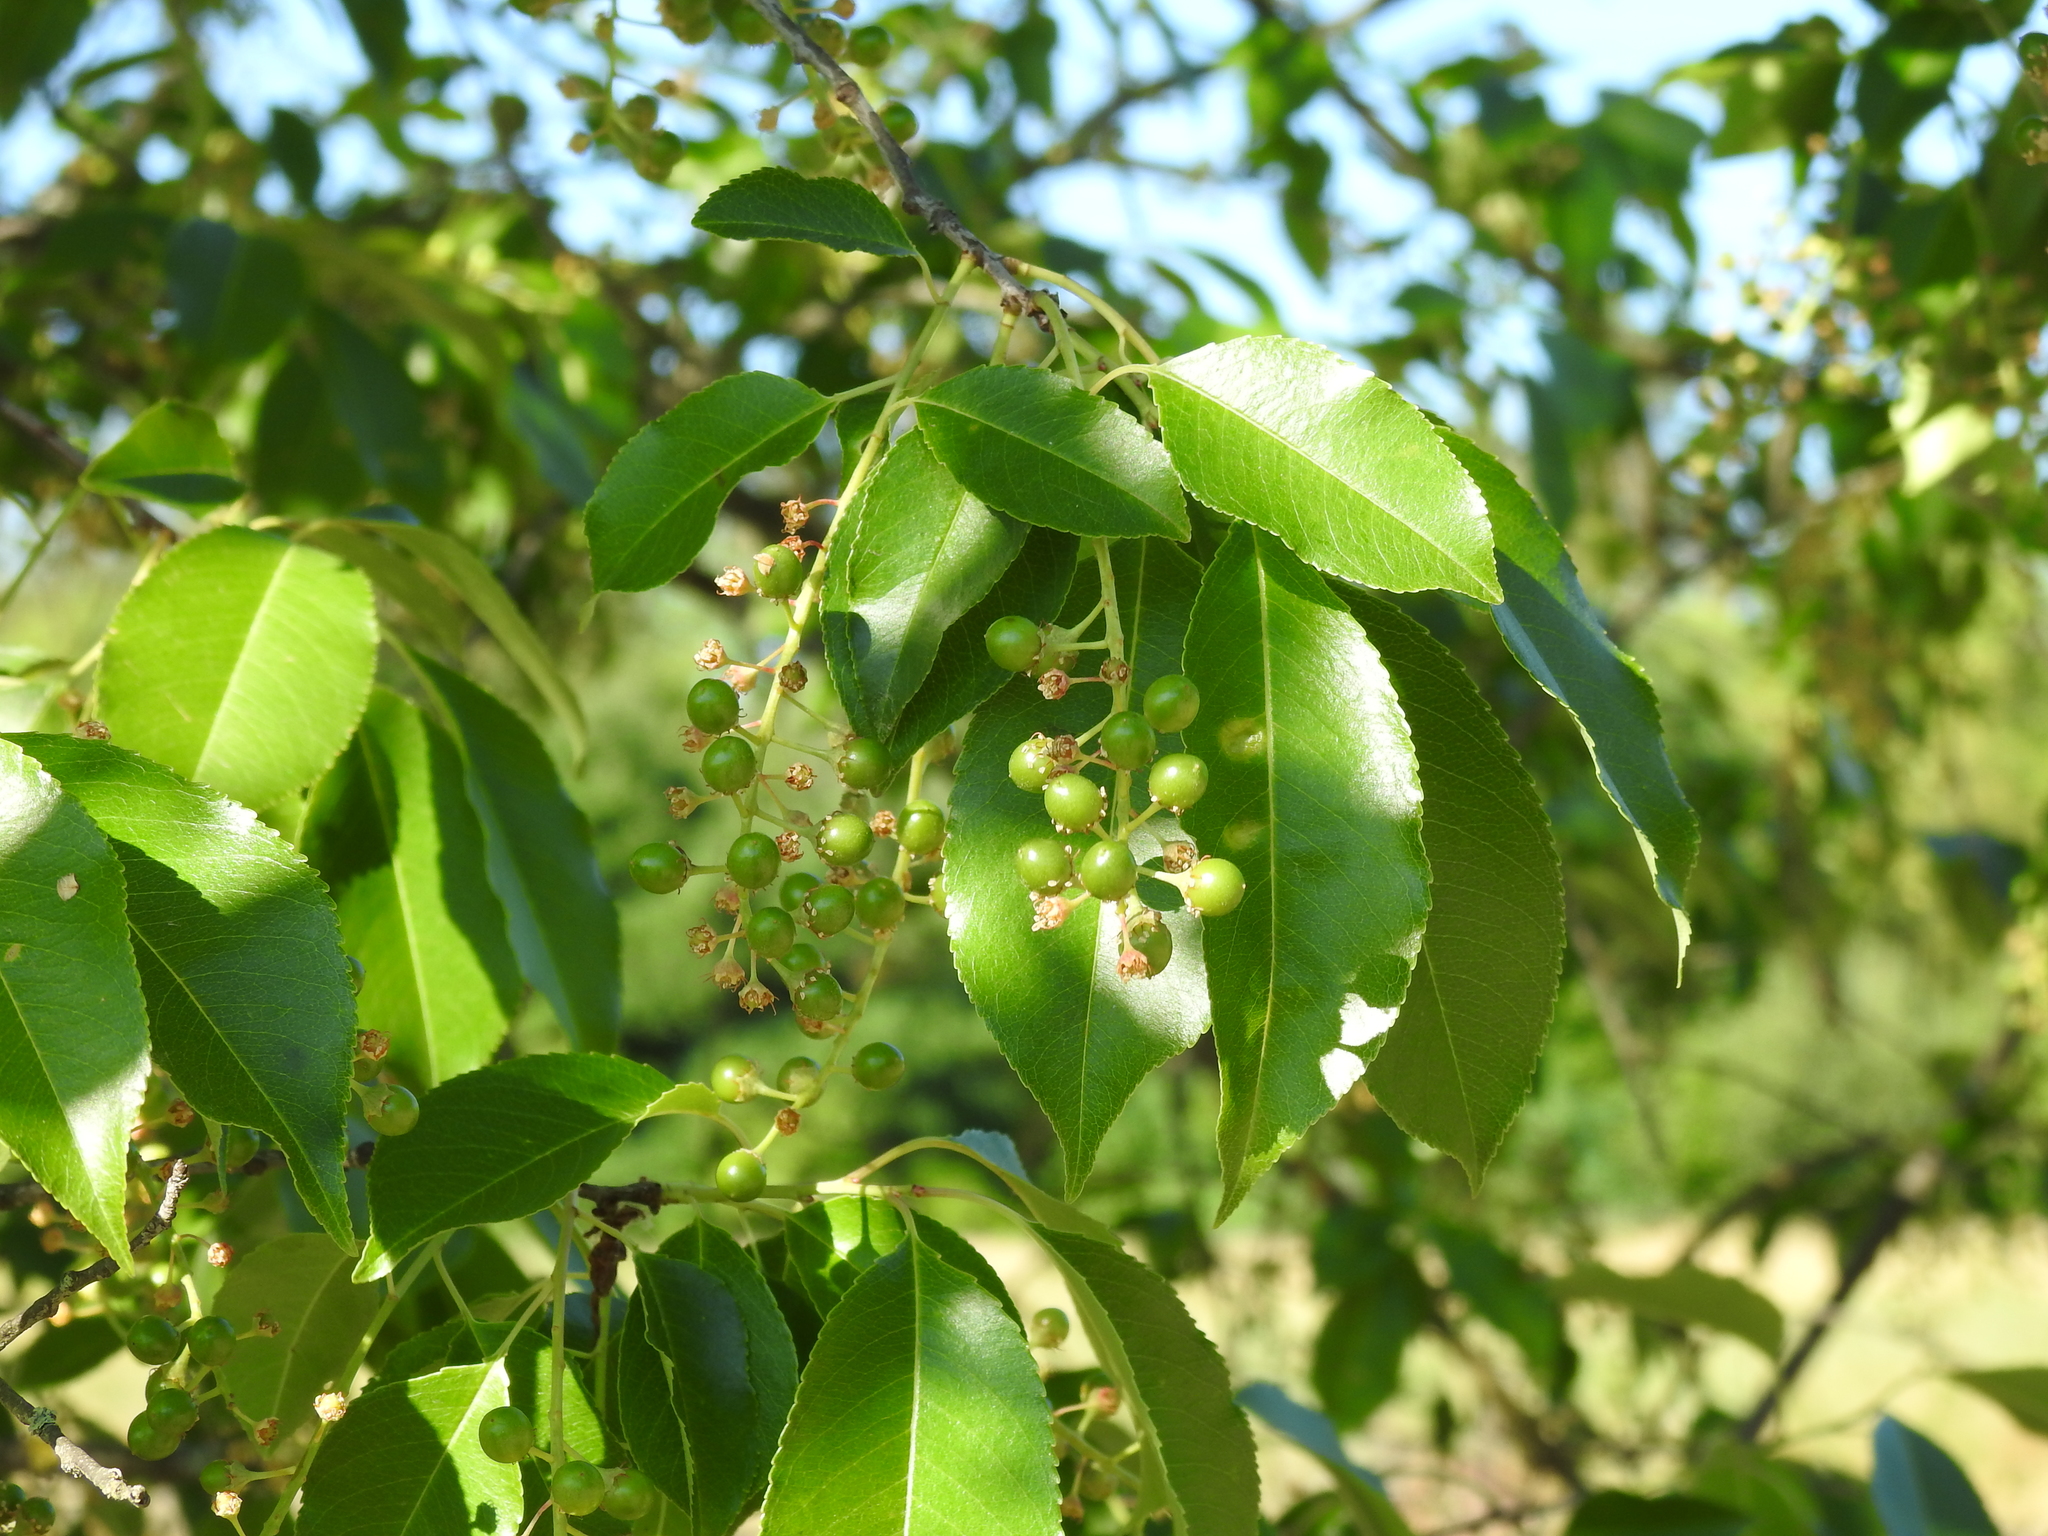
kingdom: Plantae
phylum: Tracheophyta
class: Magnoliopsida
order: Rosales
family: Rosaceae
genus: Prunus
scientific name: Prunus serotina
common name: Black cherry
